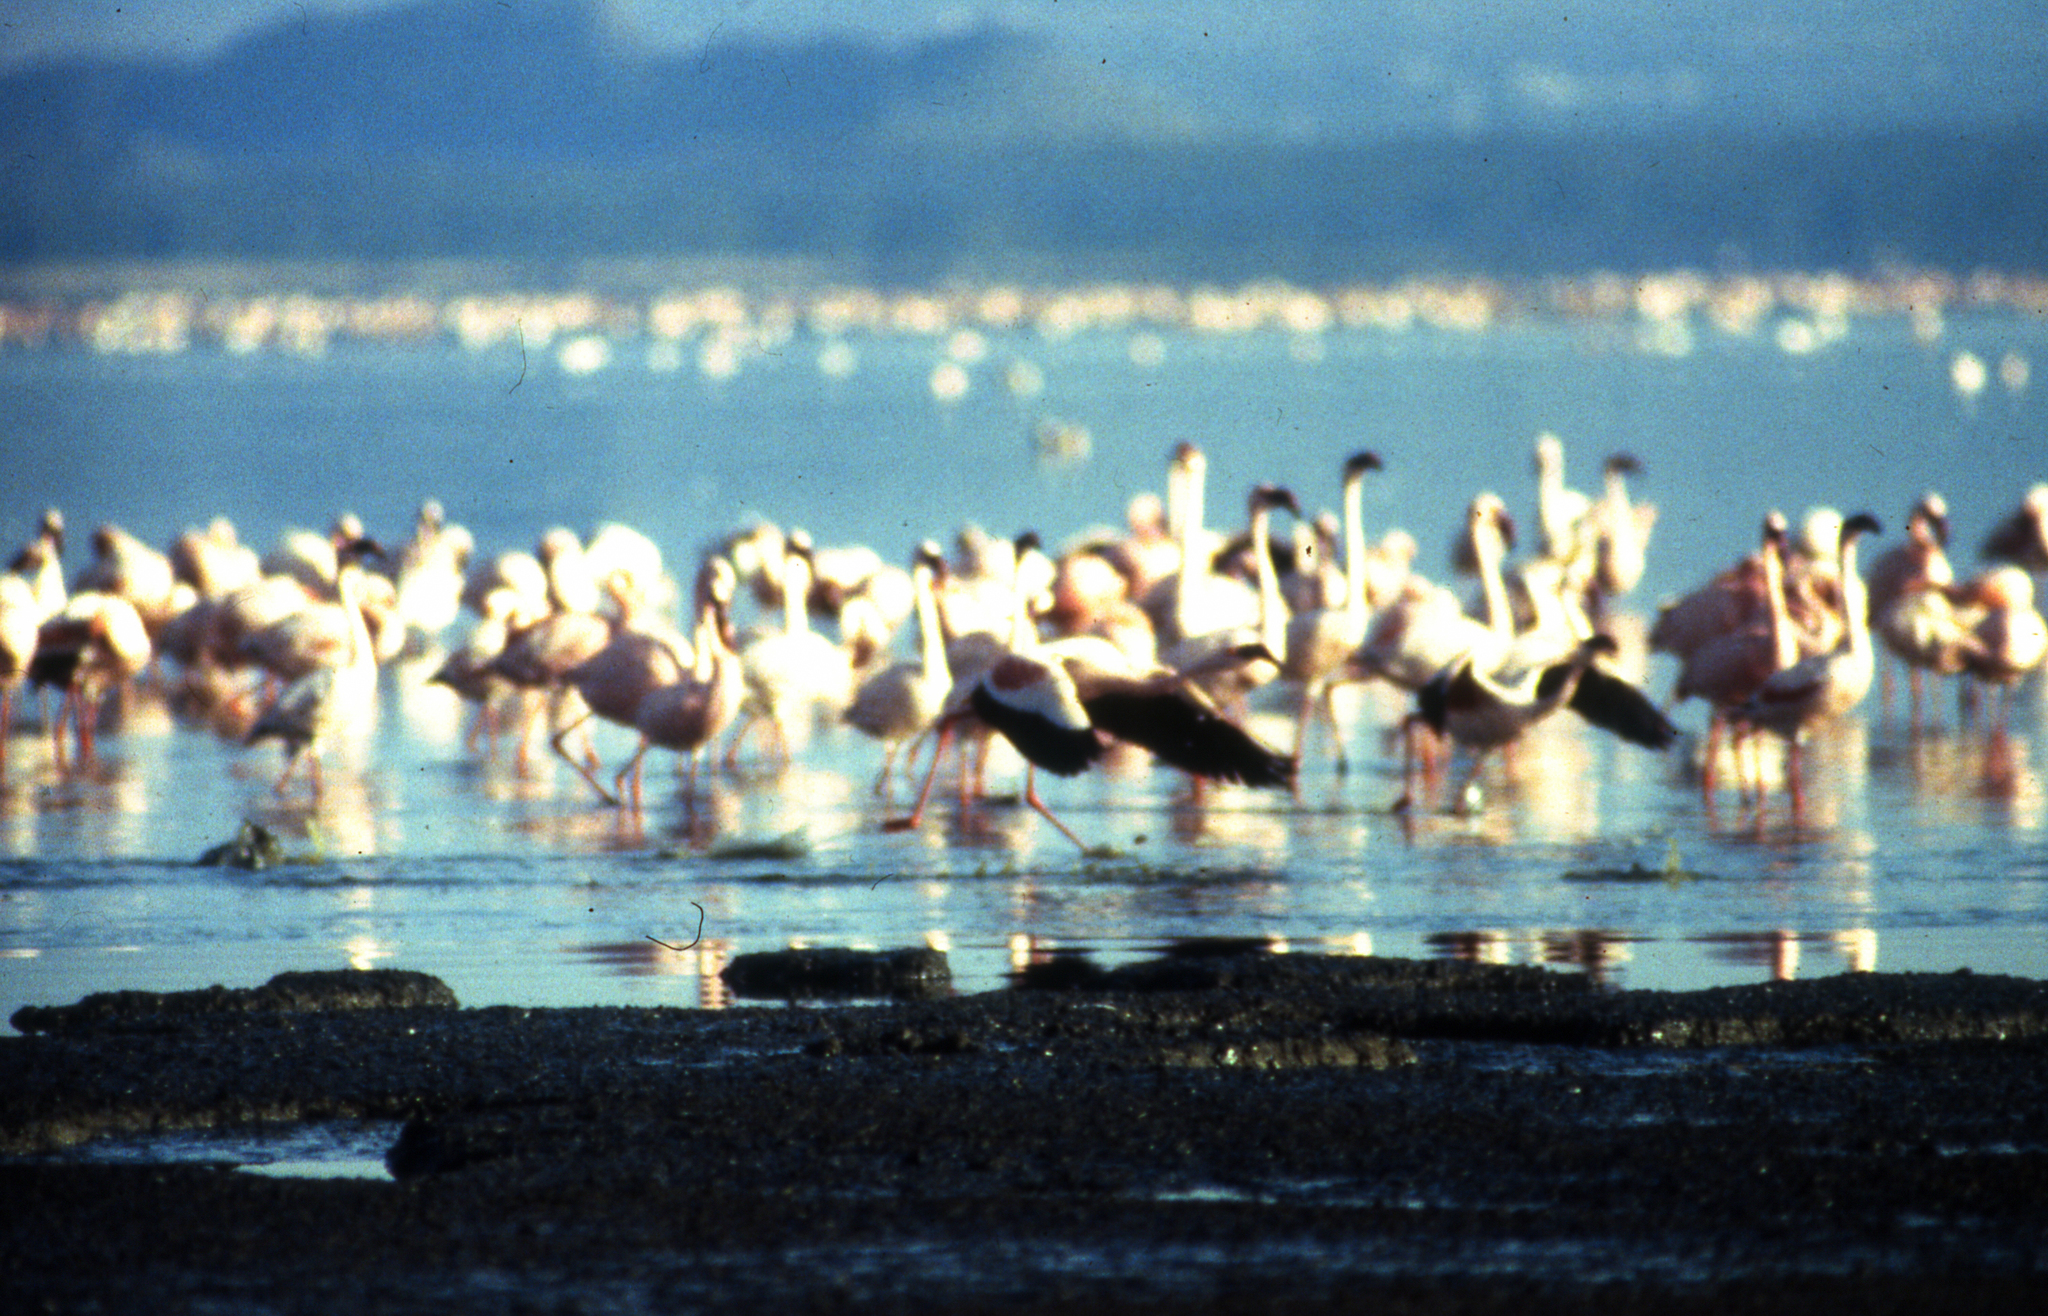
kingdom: Animalia
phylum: Chordata
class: Aves
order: Phoenicopteriformes
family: Phoenicopteridae
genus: Phoeniconaias
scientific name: Phoeniconaias minor
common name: Lesser flamingo
